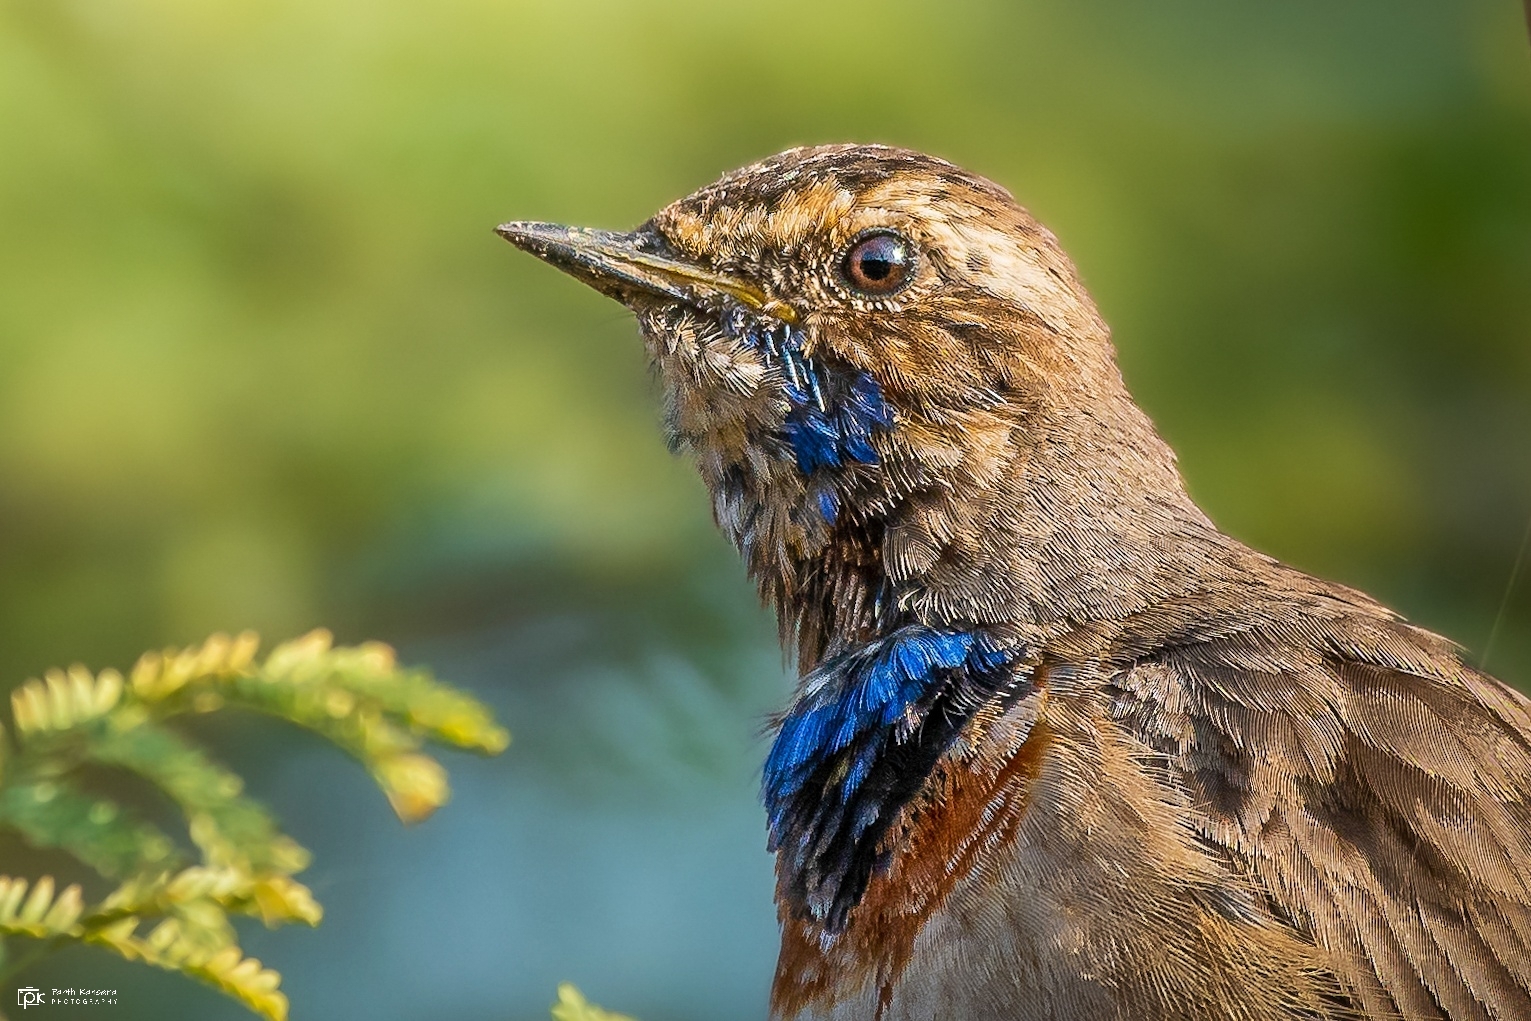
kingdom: Animalia
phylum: Chordata
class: Aves
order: Passeriformes
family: Muscicapidae
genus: Luscinia
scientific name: Luscinia svecica
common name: Bluethroat
